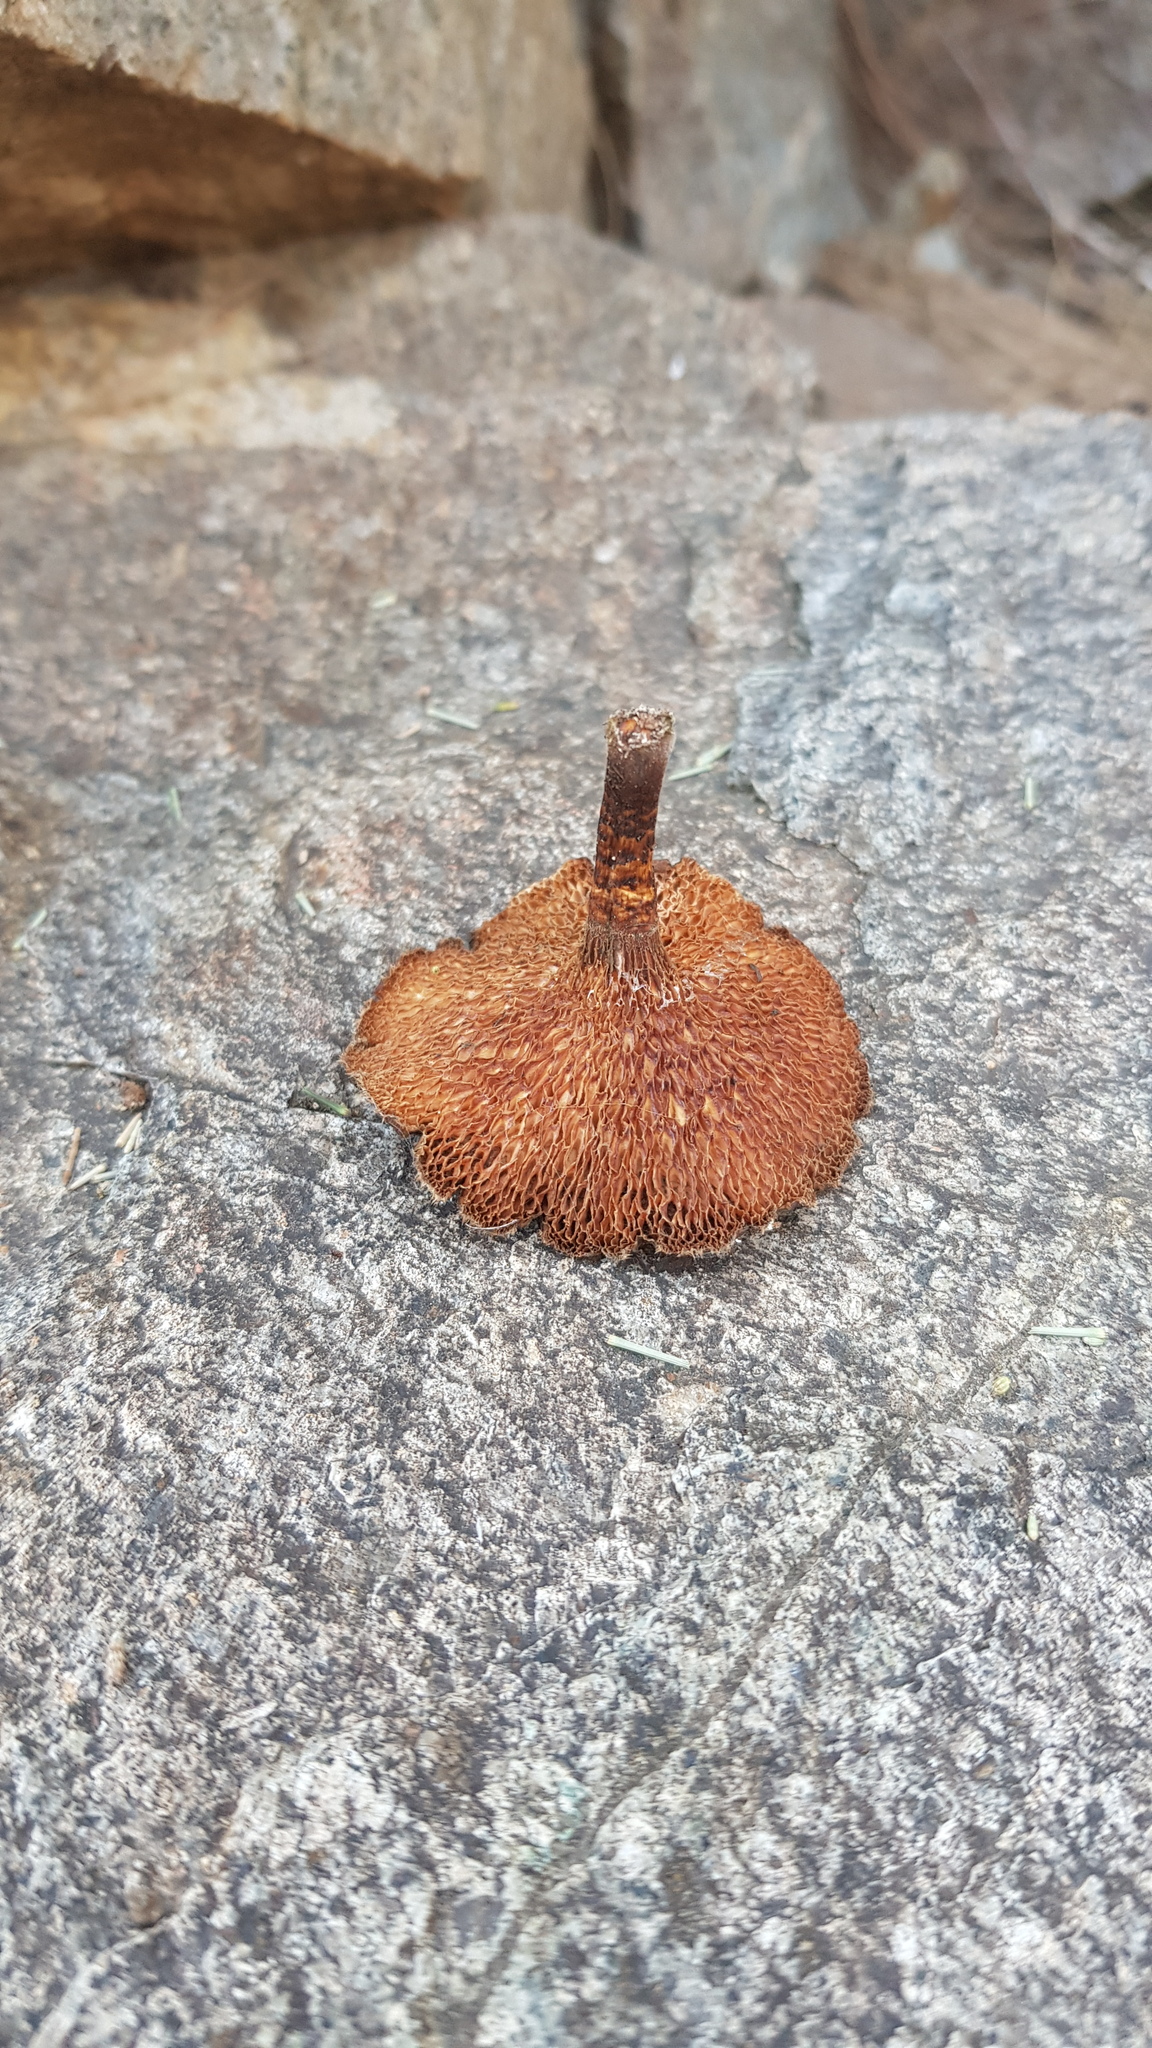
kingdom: Fungi
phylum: Basidiomycota
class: Agaricomycetes
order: Polyporales
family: Polyporaceae
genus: Lentinus
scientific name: Lentinus arcularius
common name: Spring polypore
